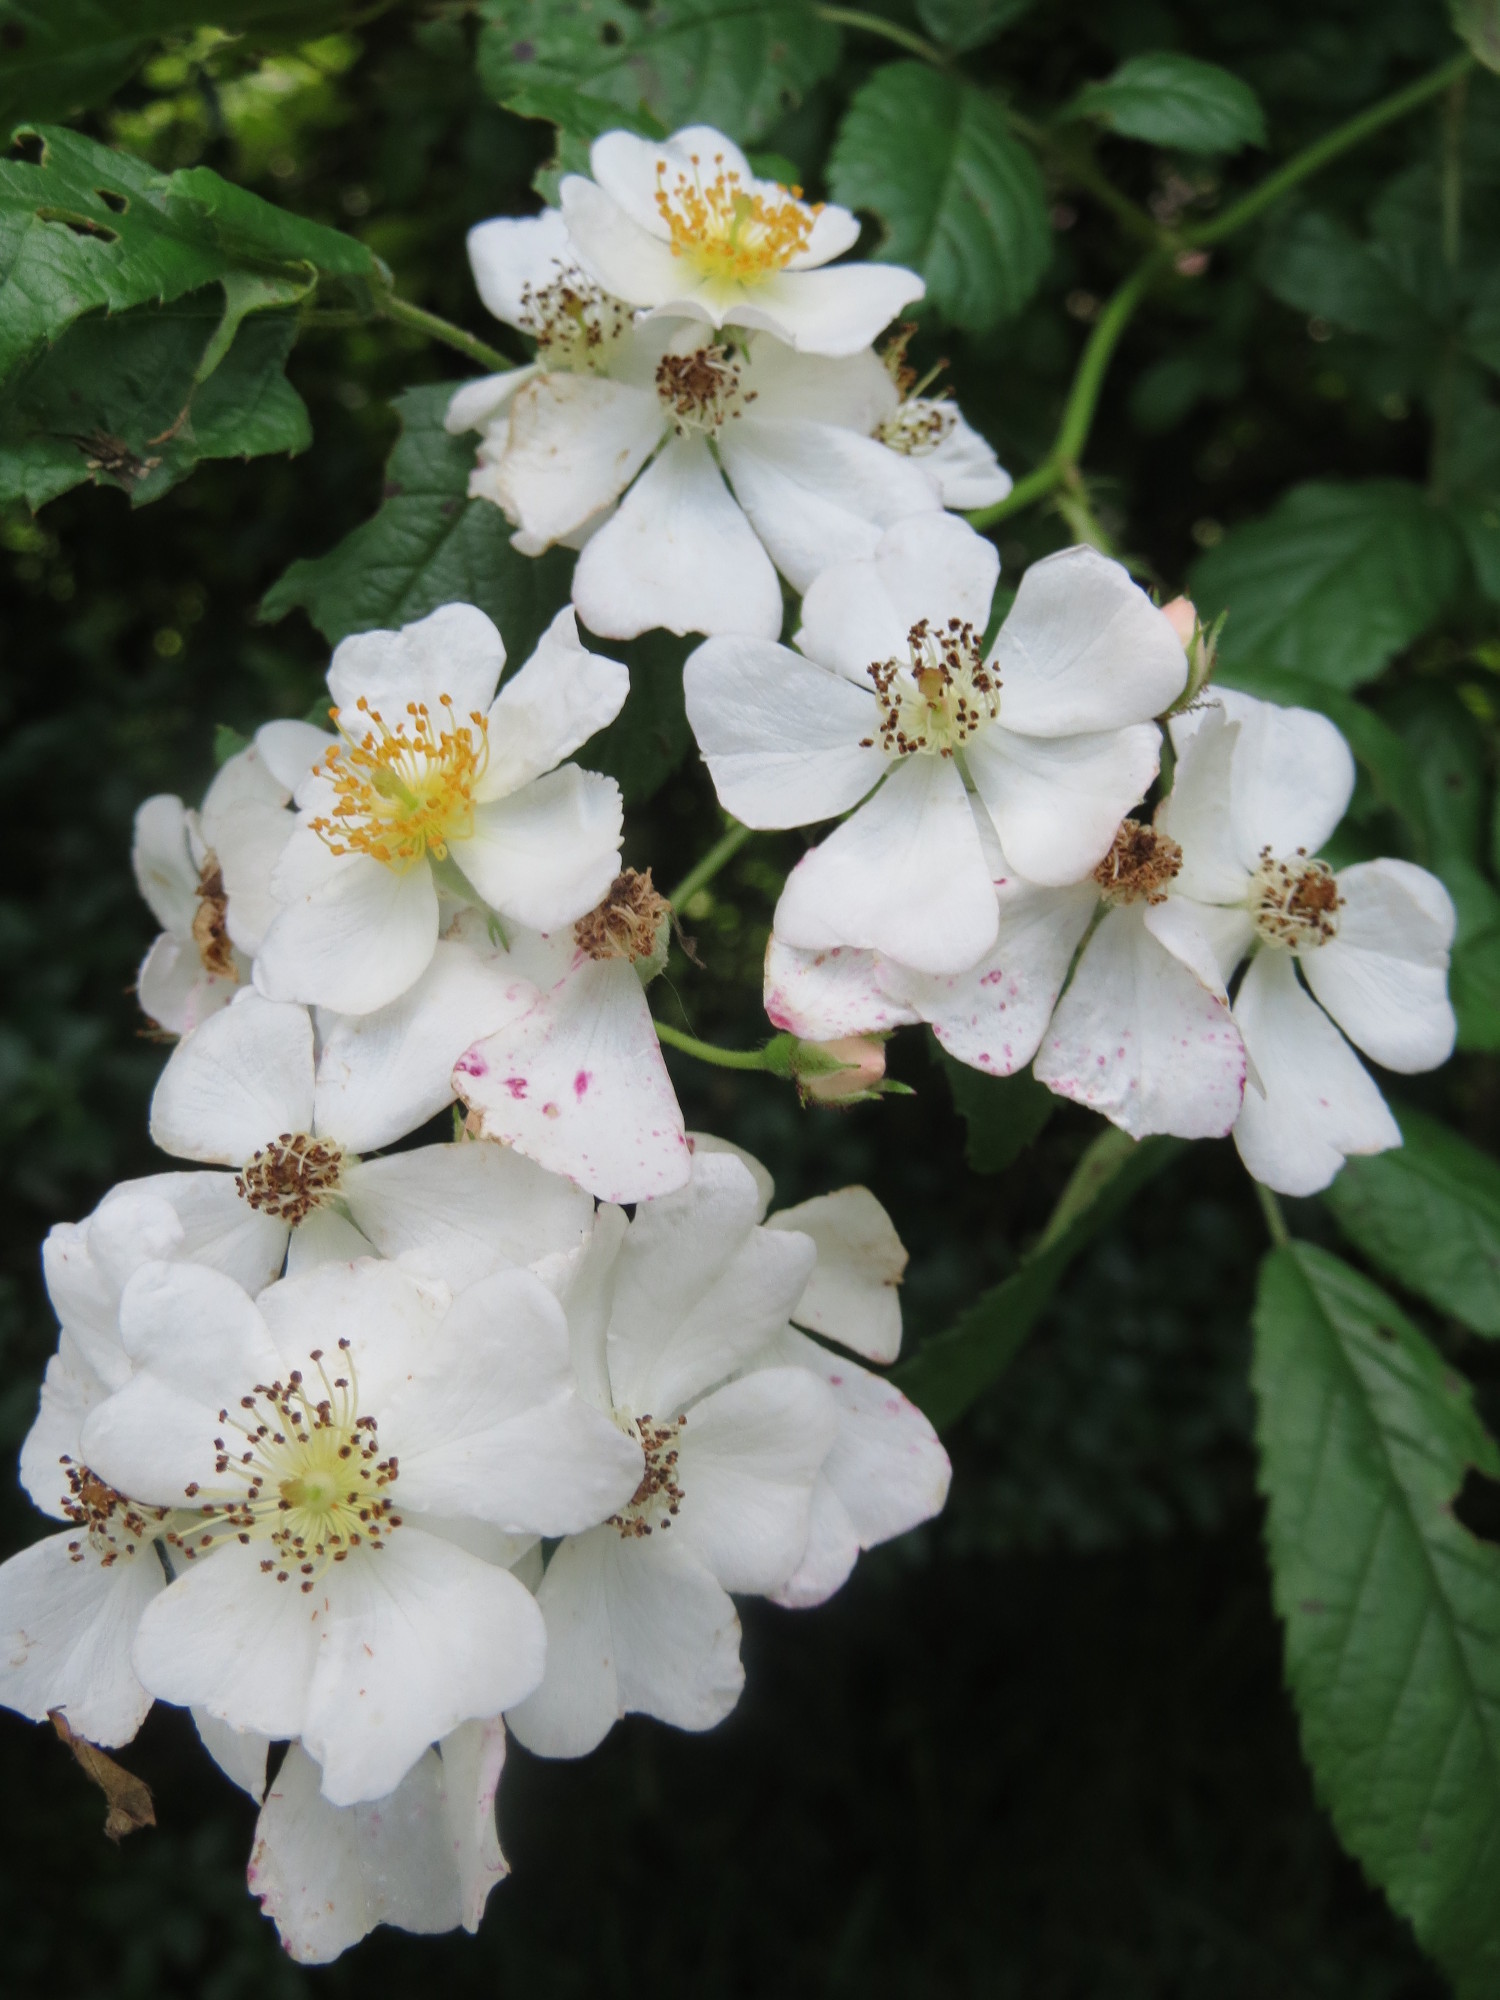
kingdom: Plantae
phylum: Tracheophyta
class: Magnoliopsida
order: Rosales
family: Rosaceae
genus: Rosa
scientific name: Rosa multiflora
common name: Multiflora rose
